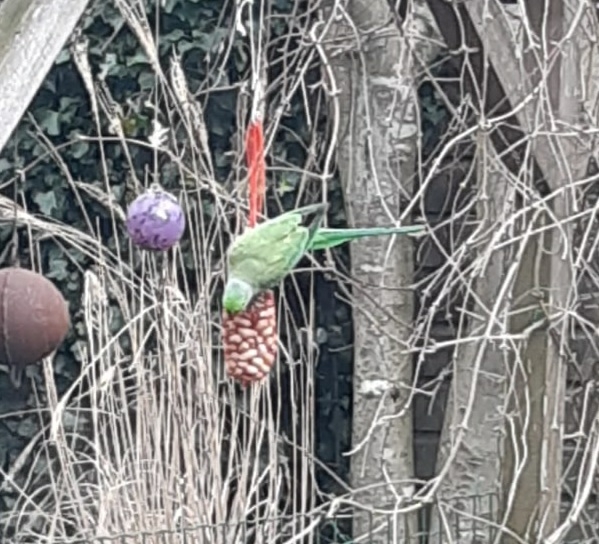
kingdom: Animalia
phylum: Chordata
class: Aves
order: Psittaciformes
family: Psittacidae
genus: Psittacula
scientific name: Psittacula krameri
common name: Rose-ringed parakeet
